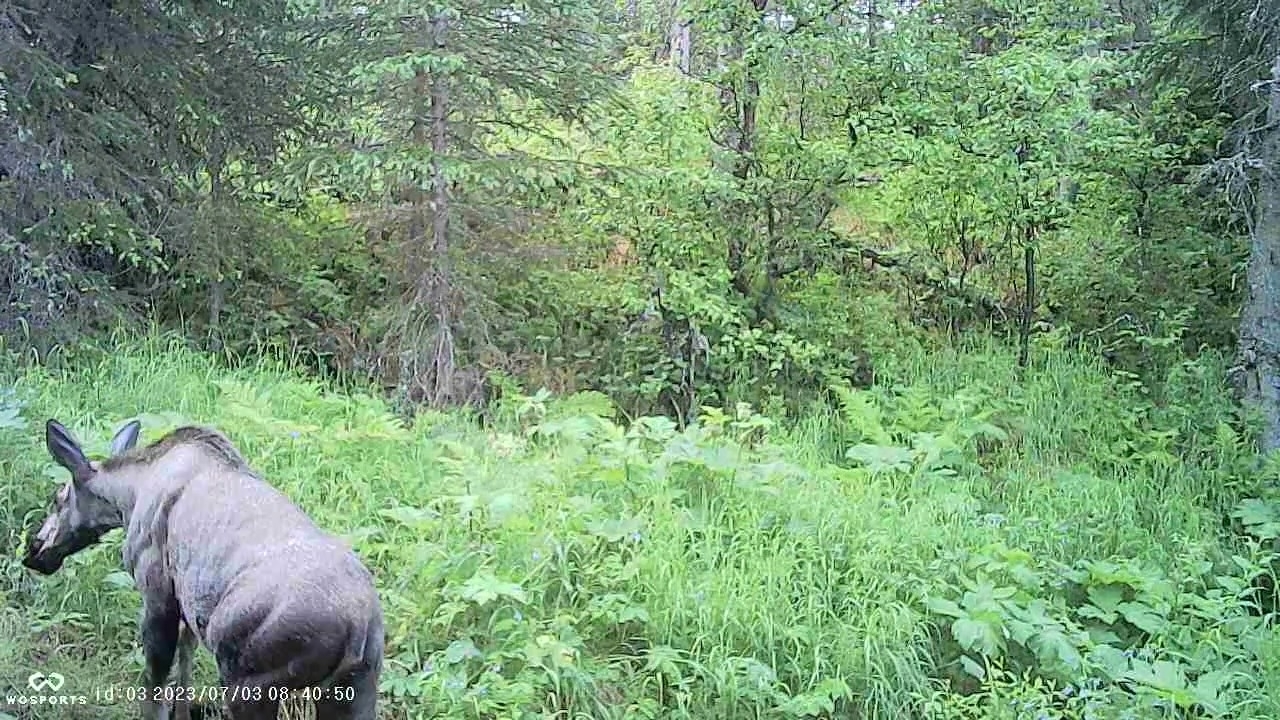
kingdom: Animalia
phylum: Chordata
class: Mammalia
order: Artiodactyla
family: Cervidae
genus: Alces
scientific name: Alces alces
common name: Moose
